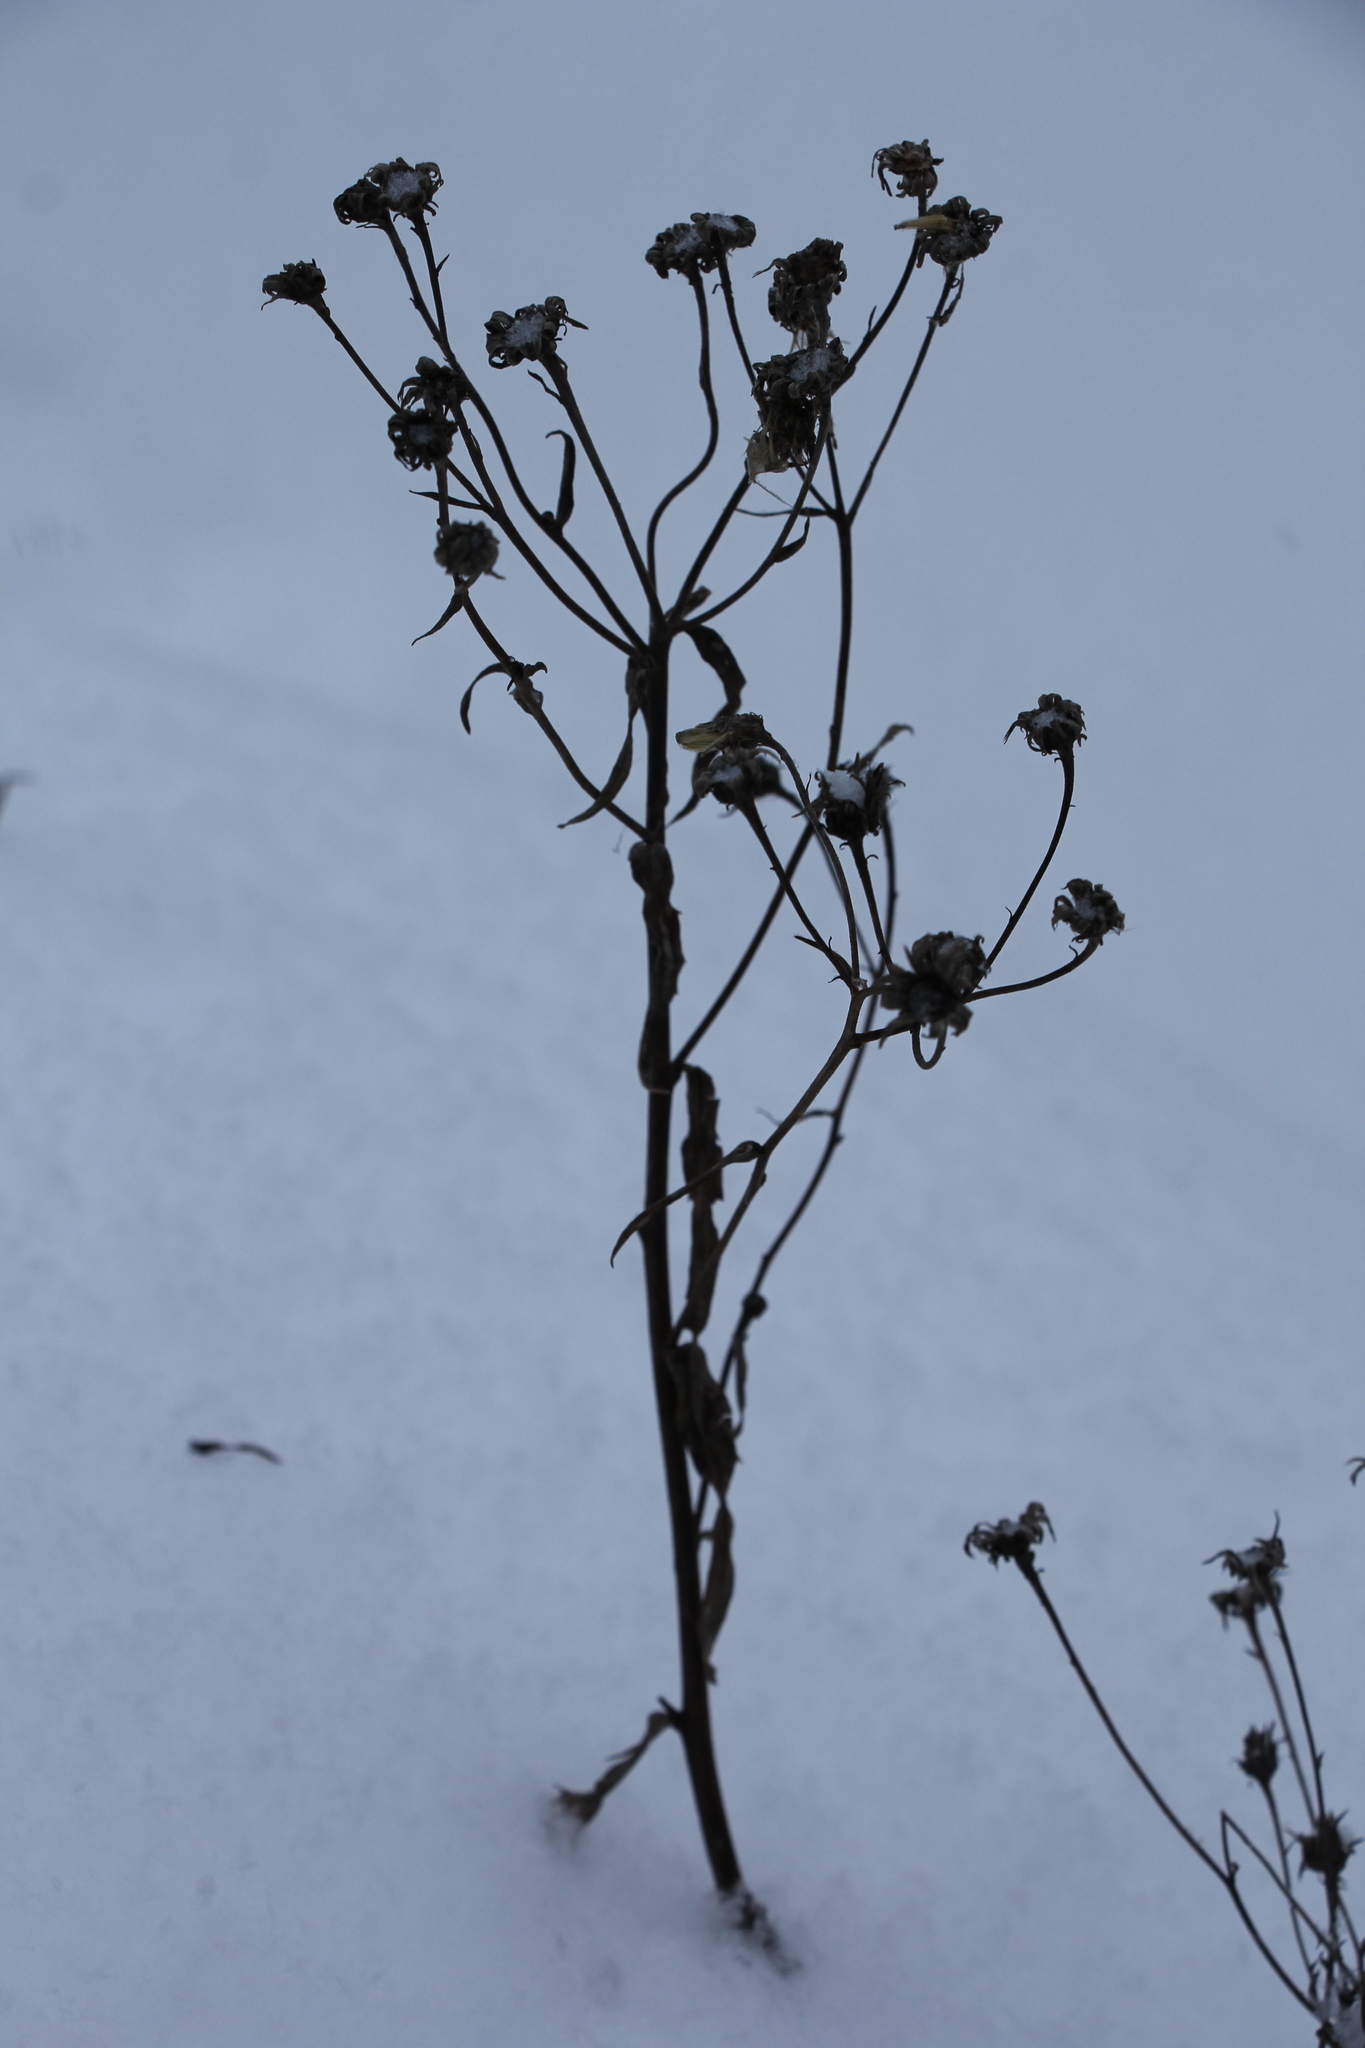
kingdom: Plantae
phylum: Tracheophyta
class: Magnoliopsida
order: Asterales
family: Asteraceae
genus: Hieracium
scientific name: Hieracium umbellatum
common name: Northern hawkweed
